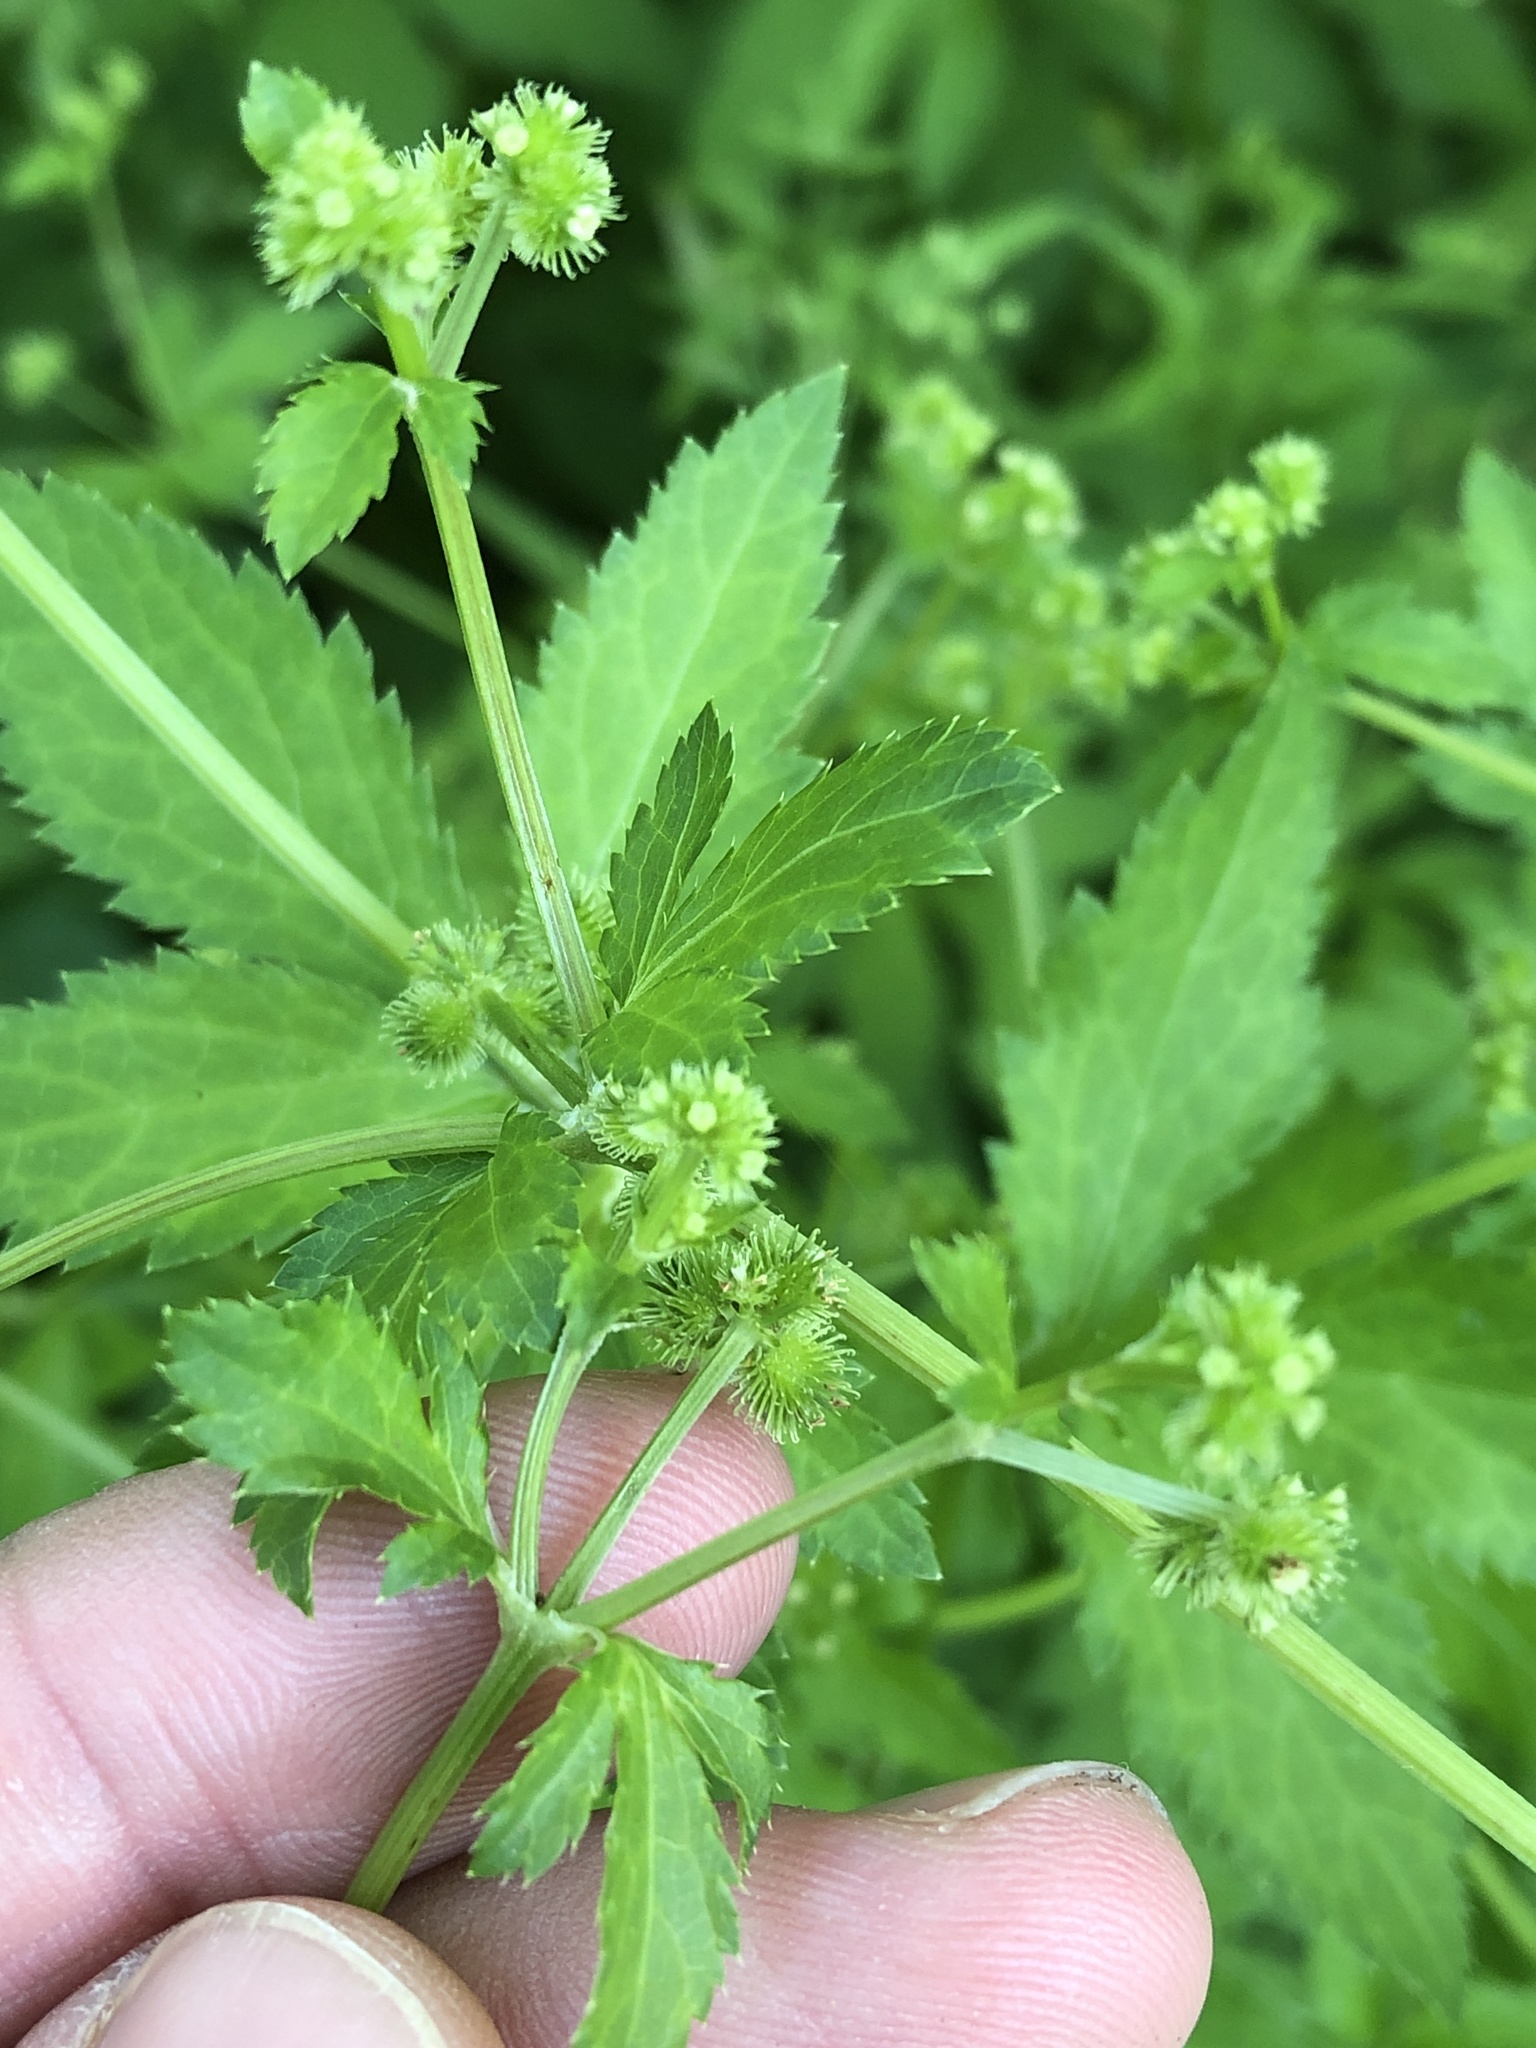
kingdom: Plantae
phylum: Tracheophyta
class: Magnoliopsida
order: Apiales
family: Apiaceae
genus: Sanicula
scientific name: Sanicula canadensis
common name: Canada sanicle
